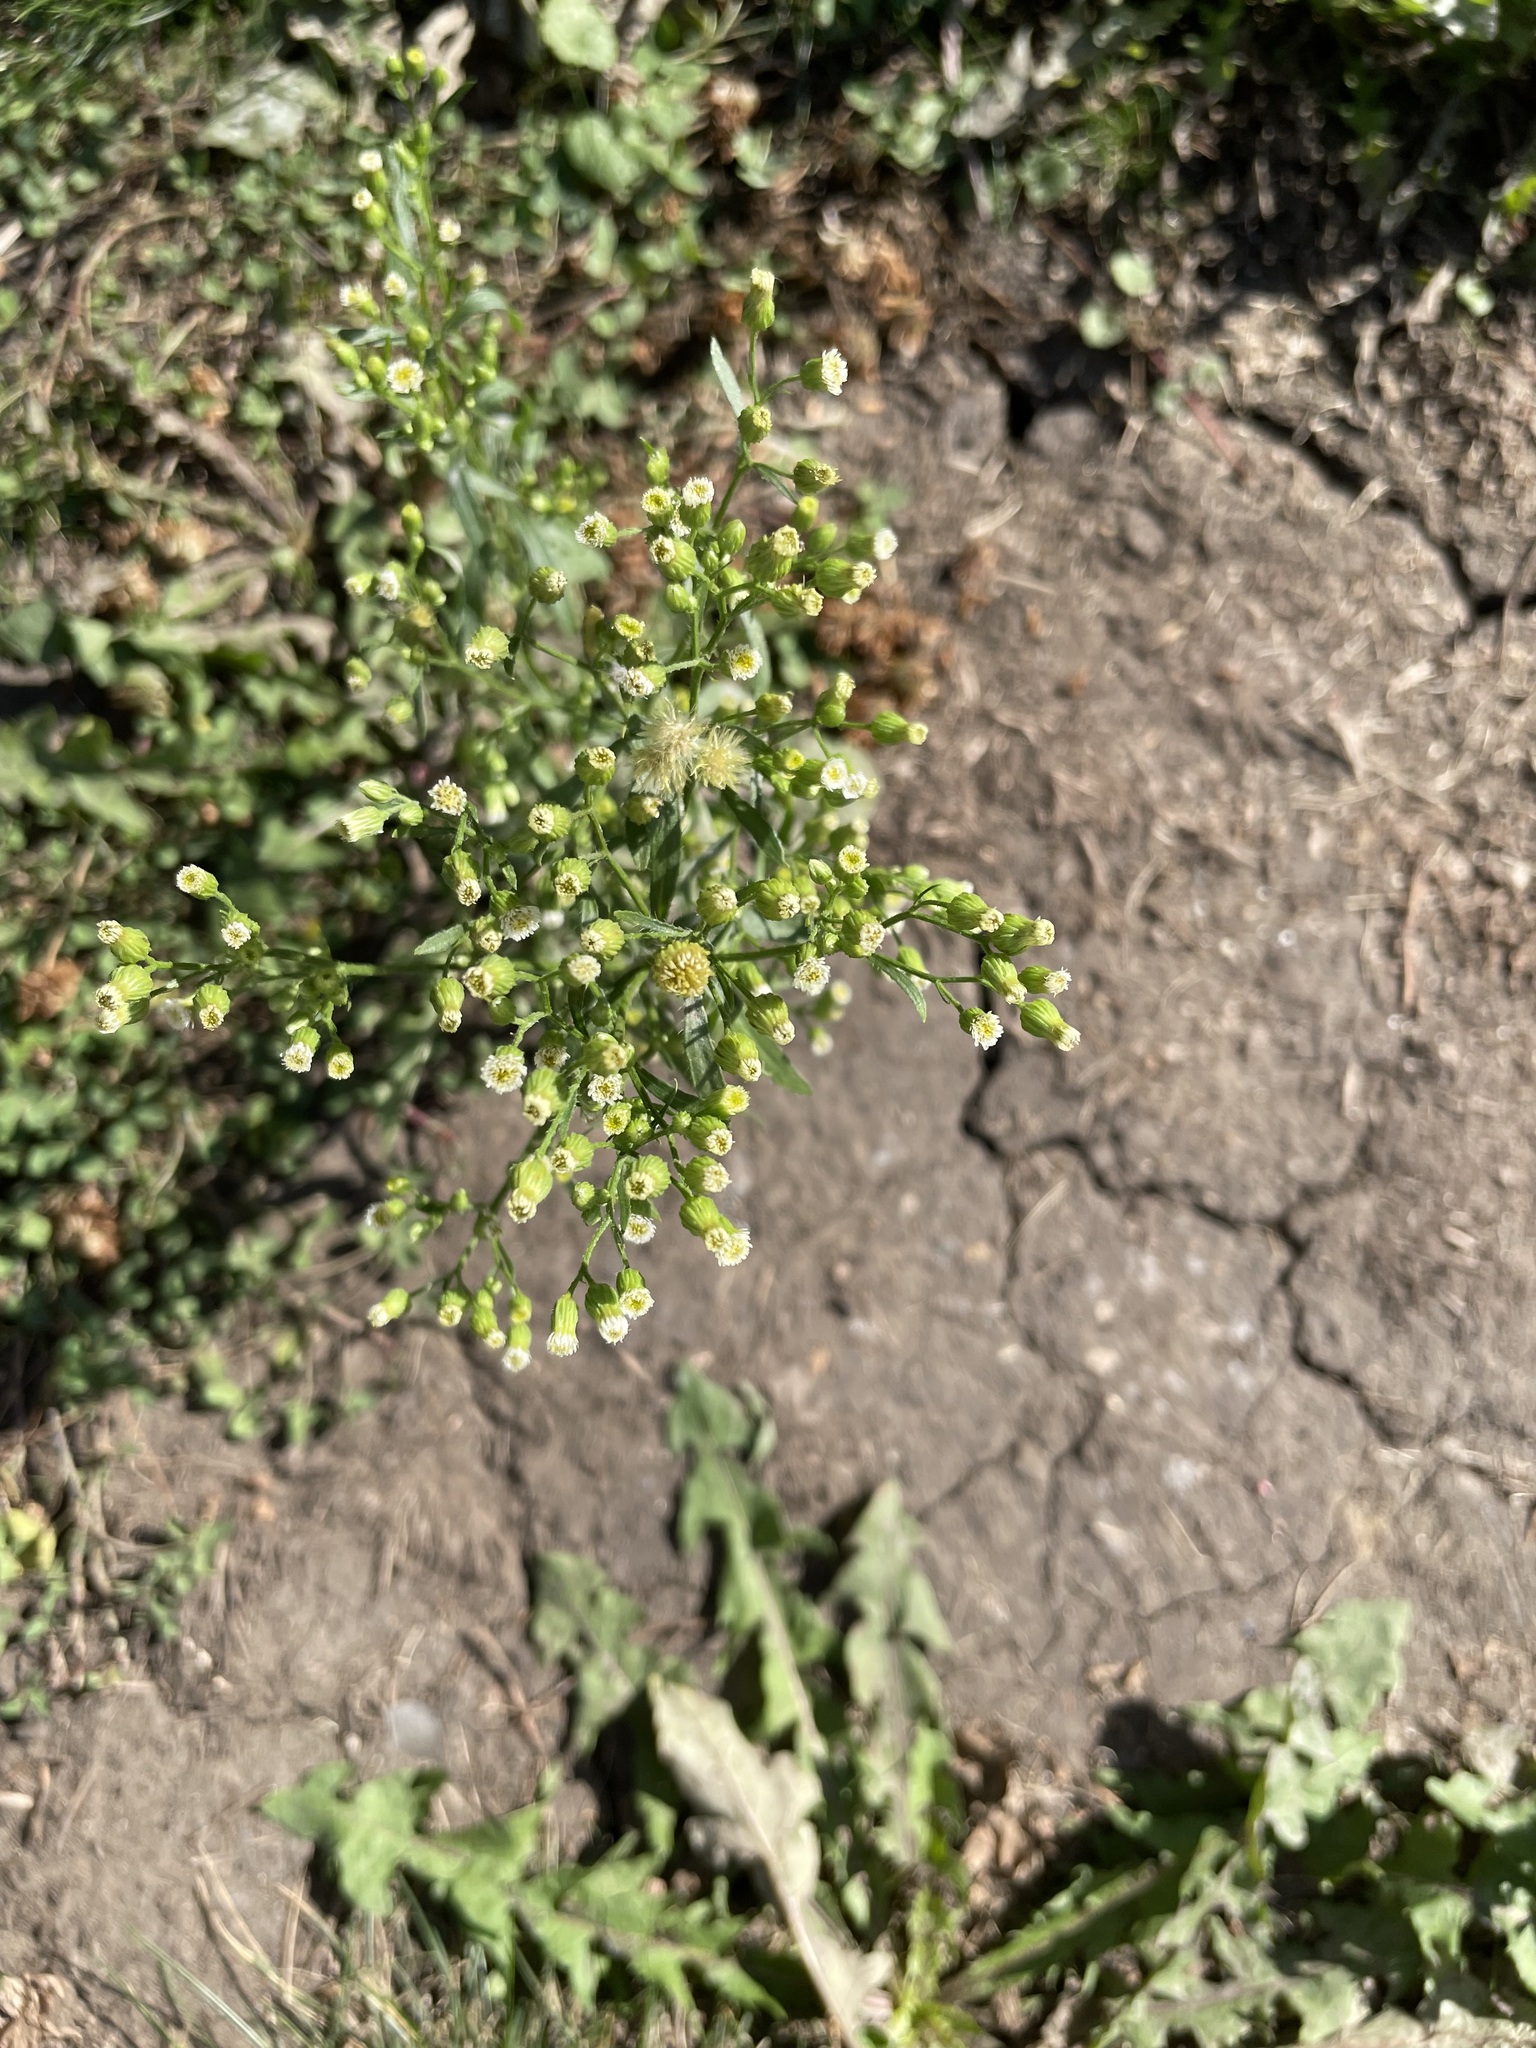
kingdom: Plantae
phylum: Tracheophyta
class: Magnoliopsida
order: Asterales
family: Asteraceae
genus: Erigeron
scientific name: Erigeron canadensis
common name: Canadian fleabane
